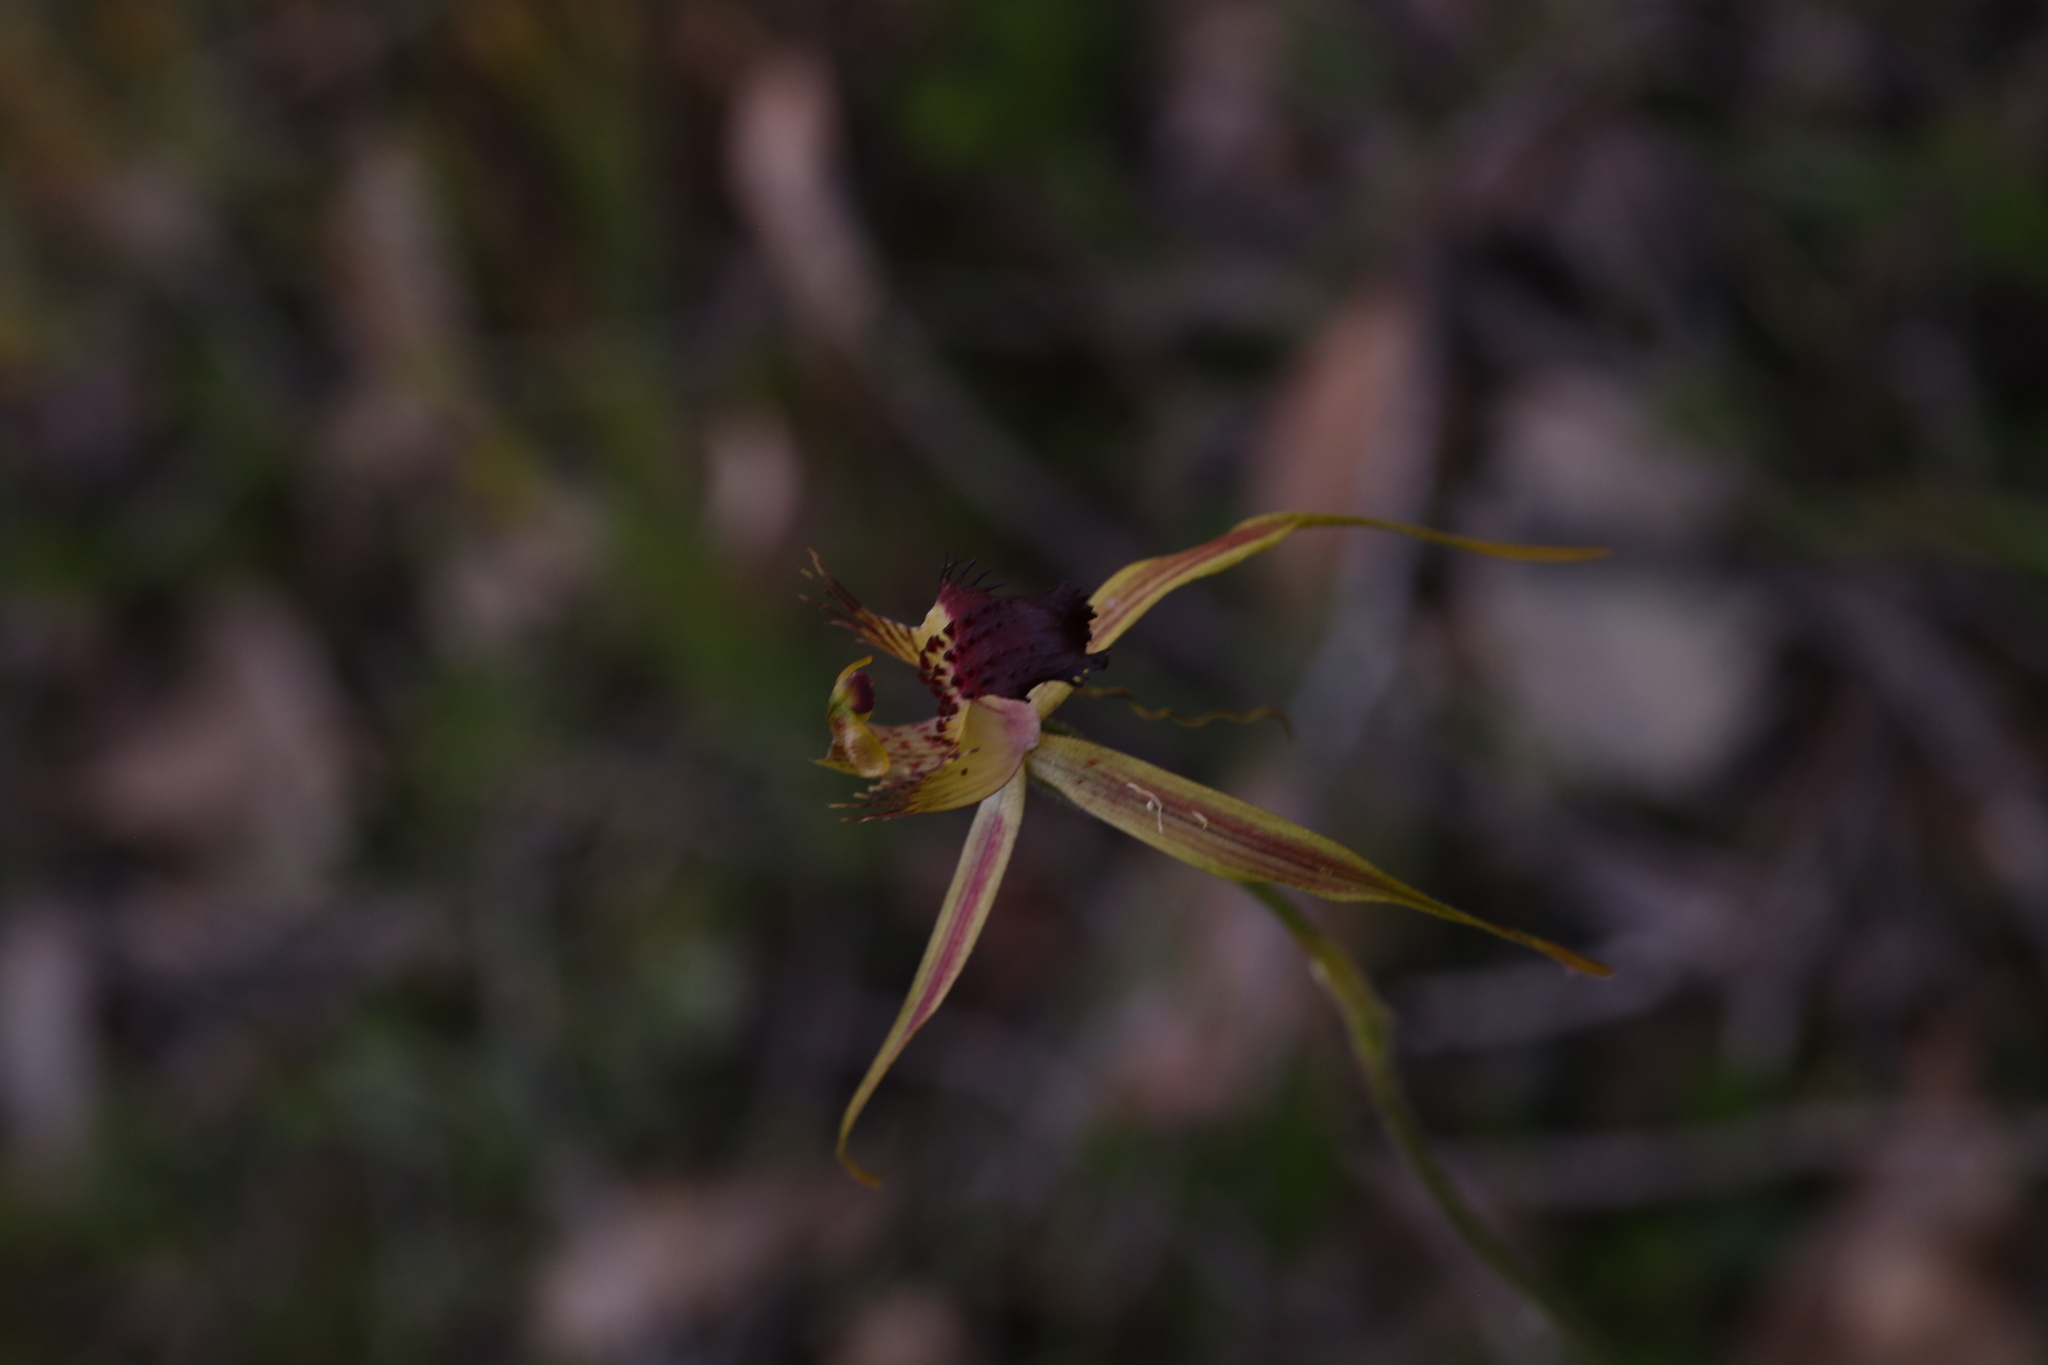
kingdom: Plantae
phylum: Tracheophyta
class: Liliopsida
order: Asparagales
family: Orchidaceae
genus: Caladenia
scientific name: Caladenia brownii
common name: Kari spider orchid
